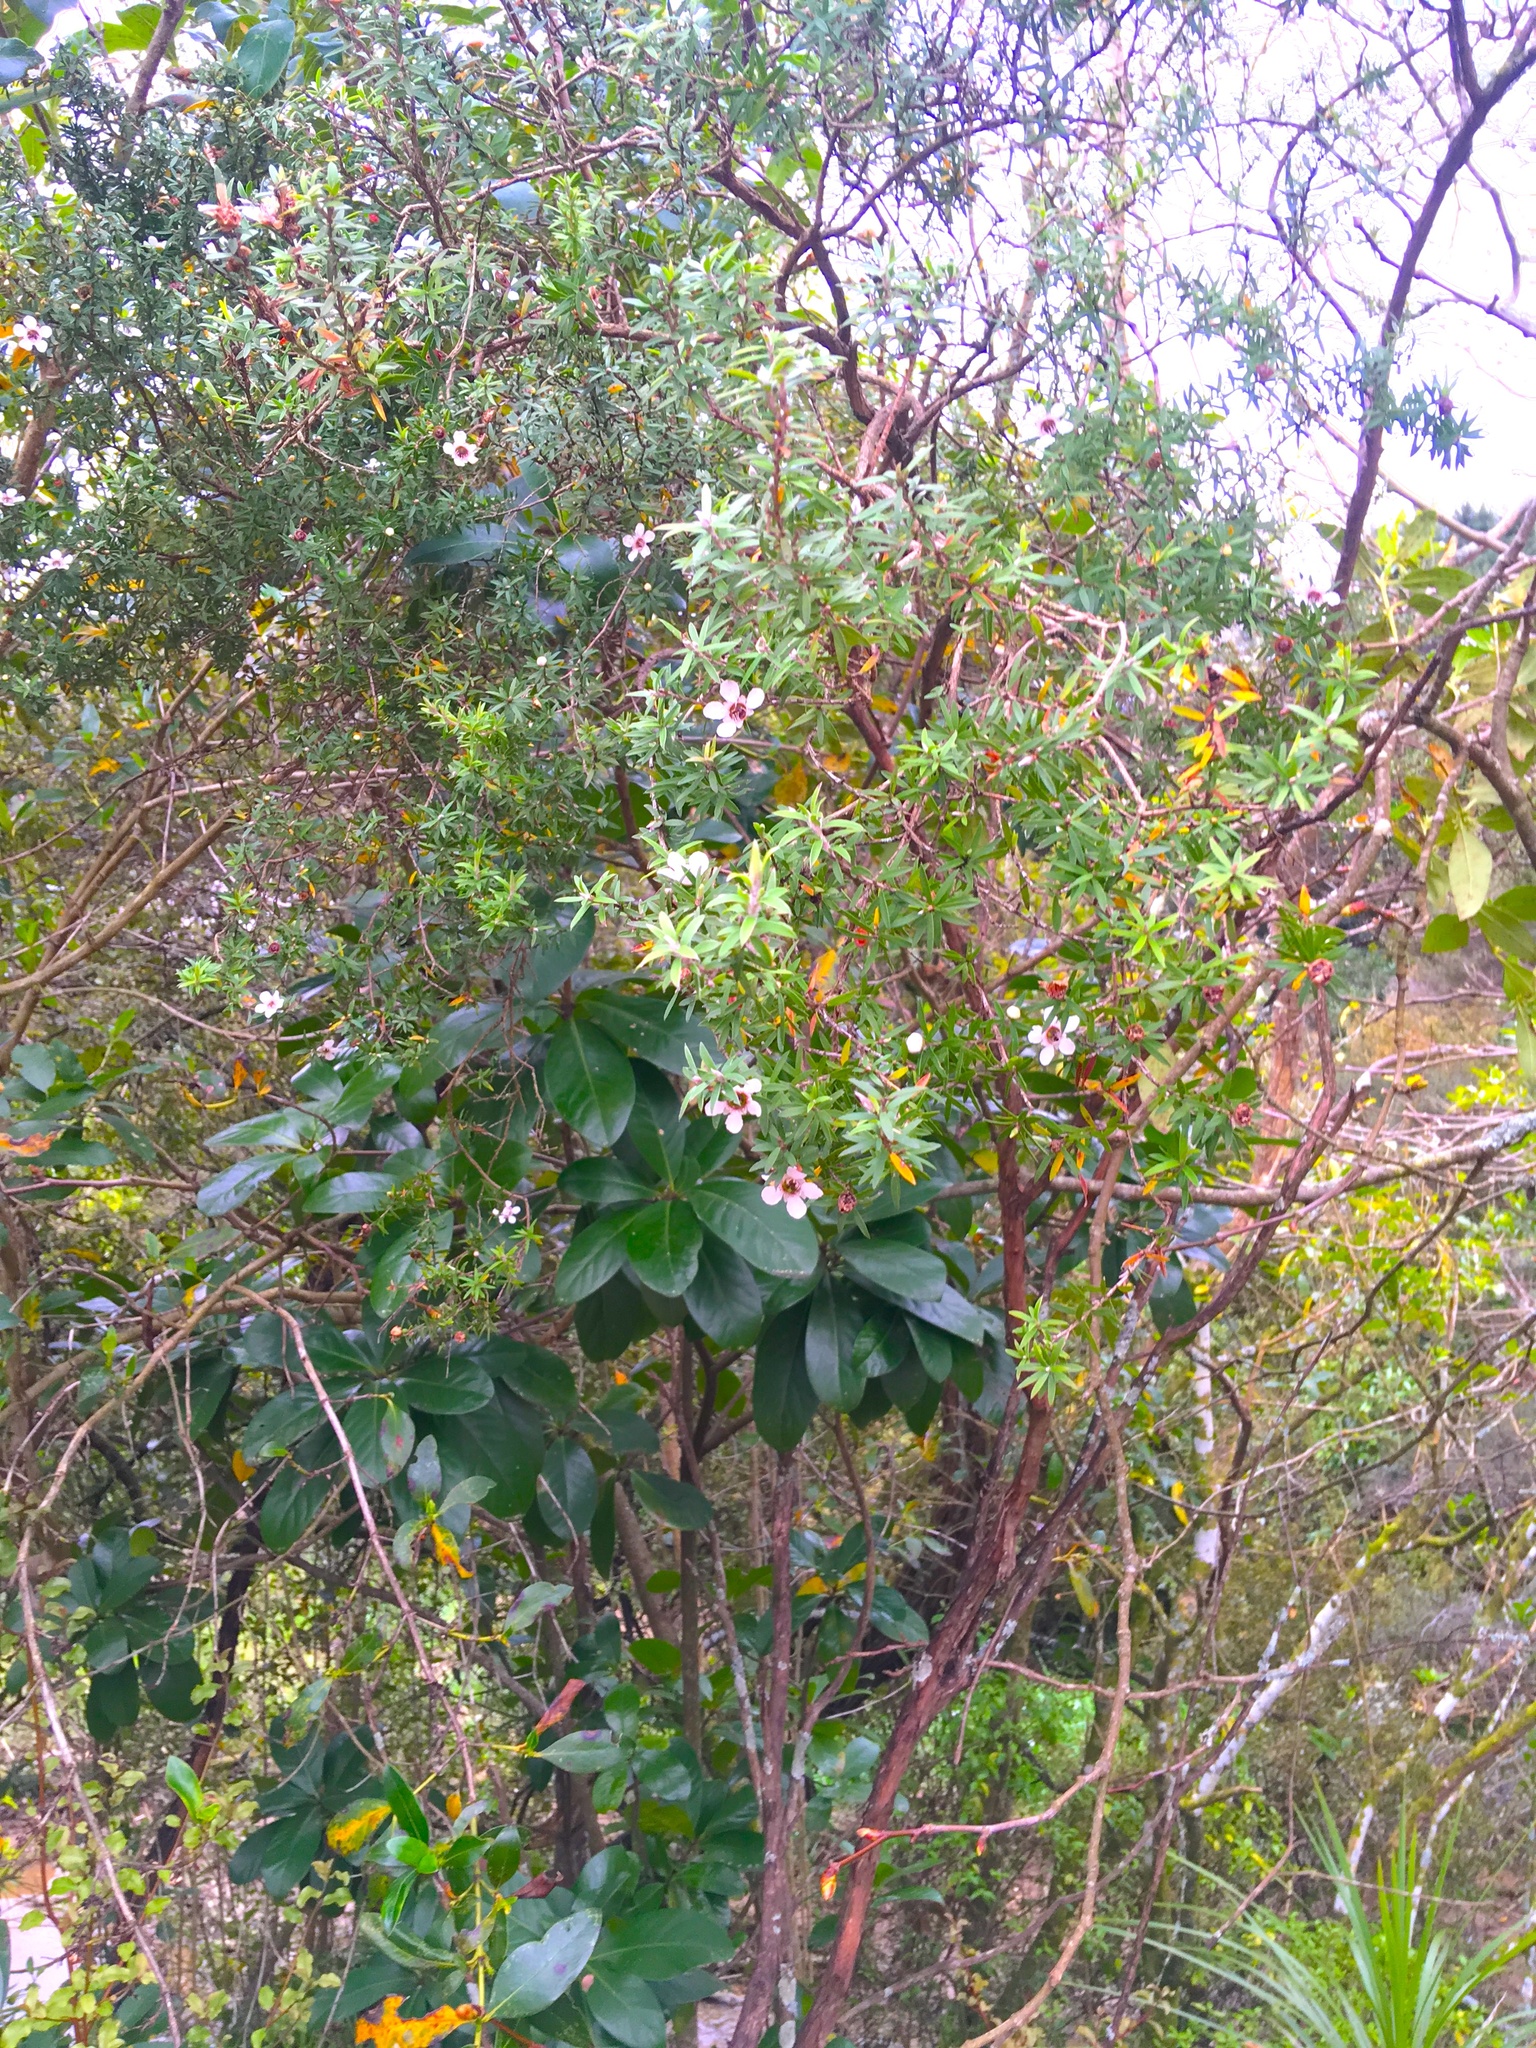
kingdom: Plantae
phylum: Tracheophyta
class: Magnoliopsida
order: Cucurbitales
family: Corynocarpaceae
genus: Corynocarpus
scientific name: Corynocarpus laevigatus
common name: New zealand laurel
